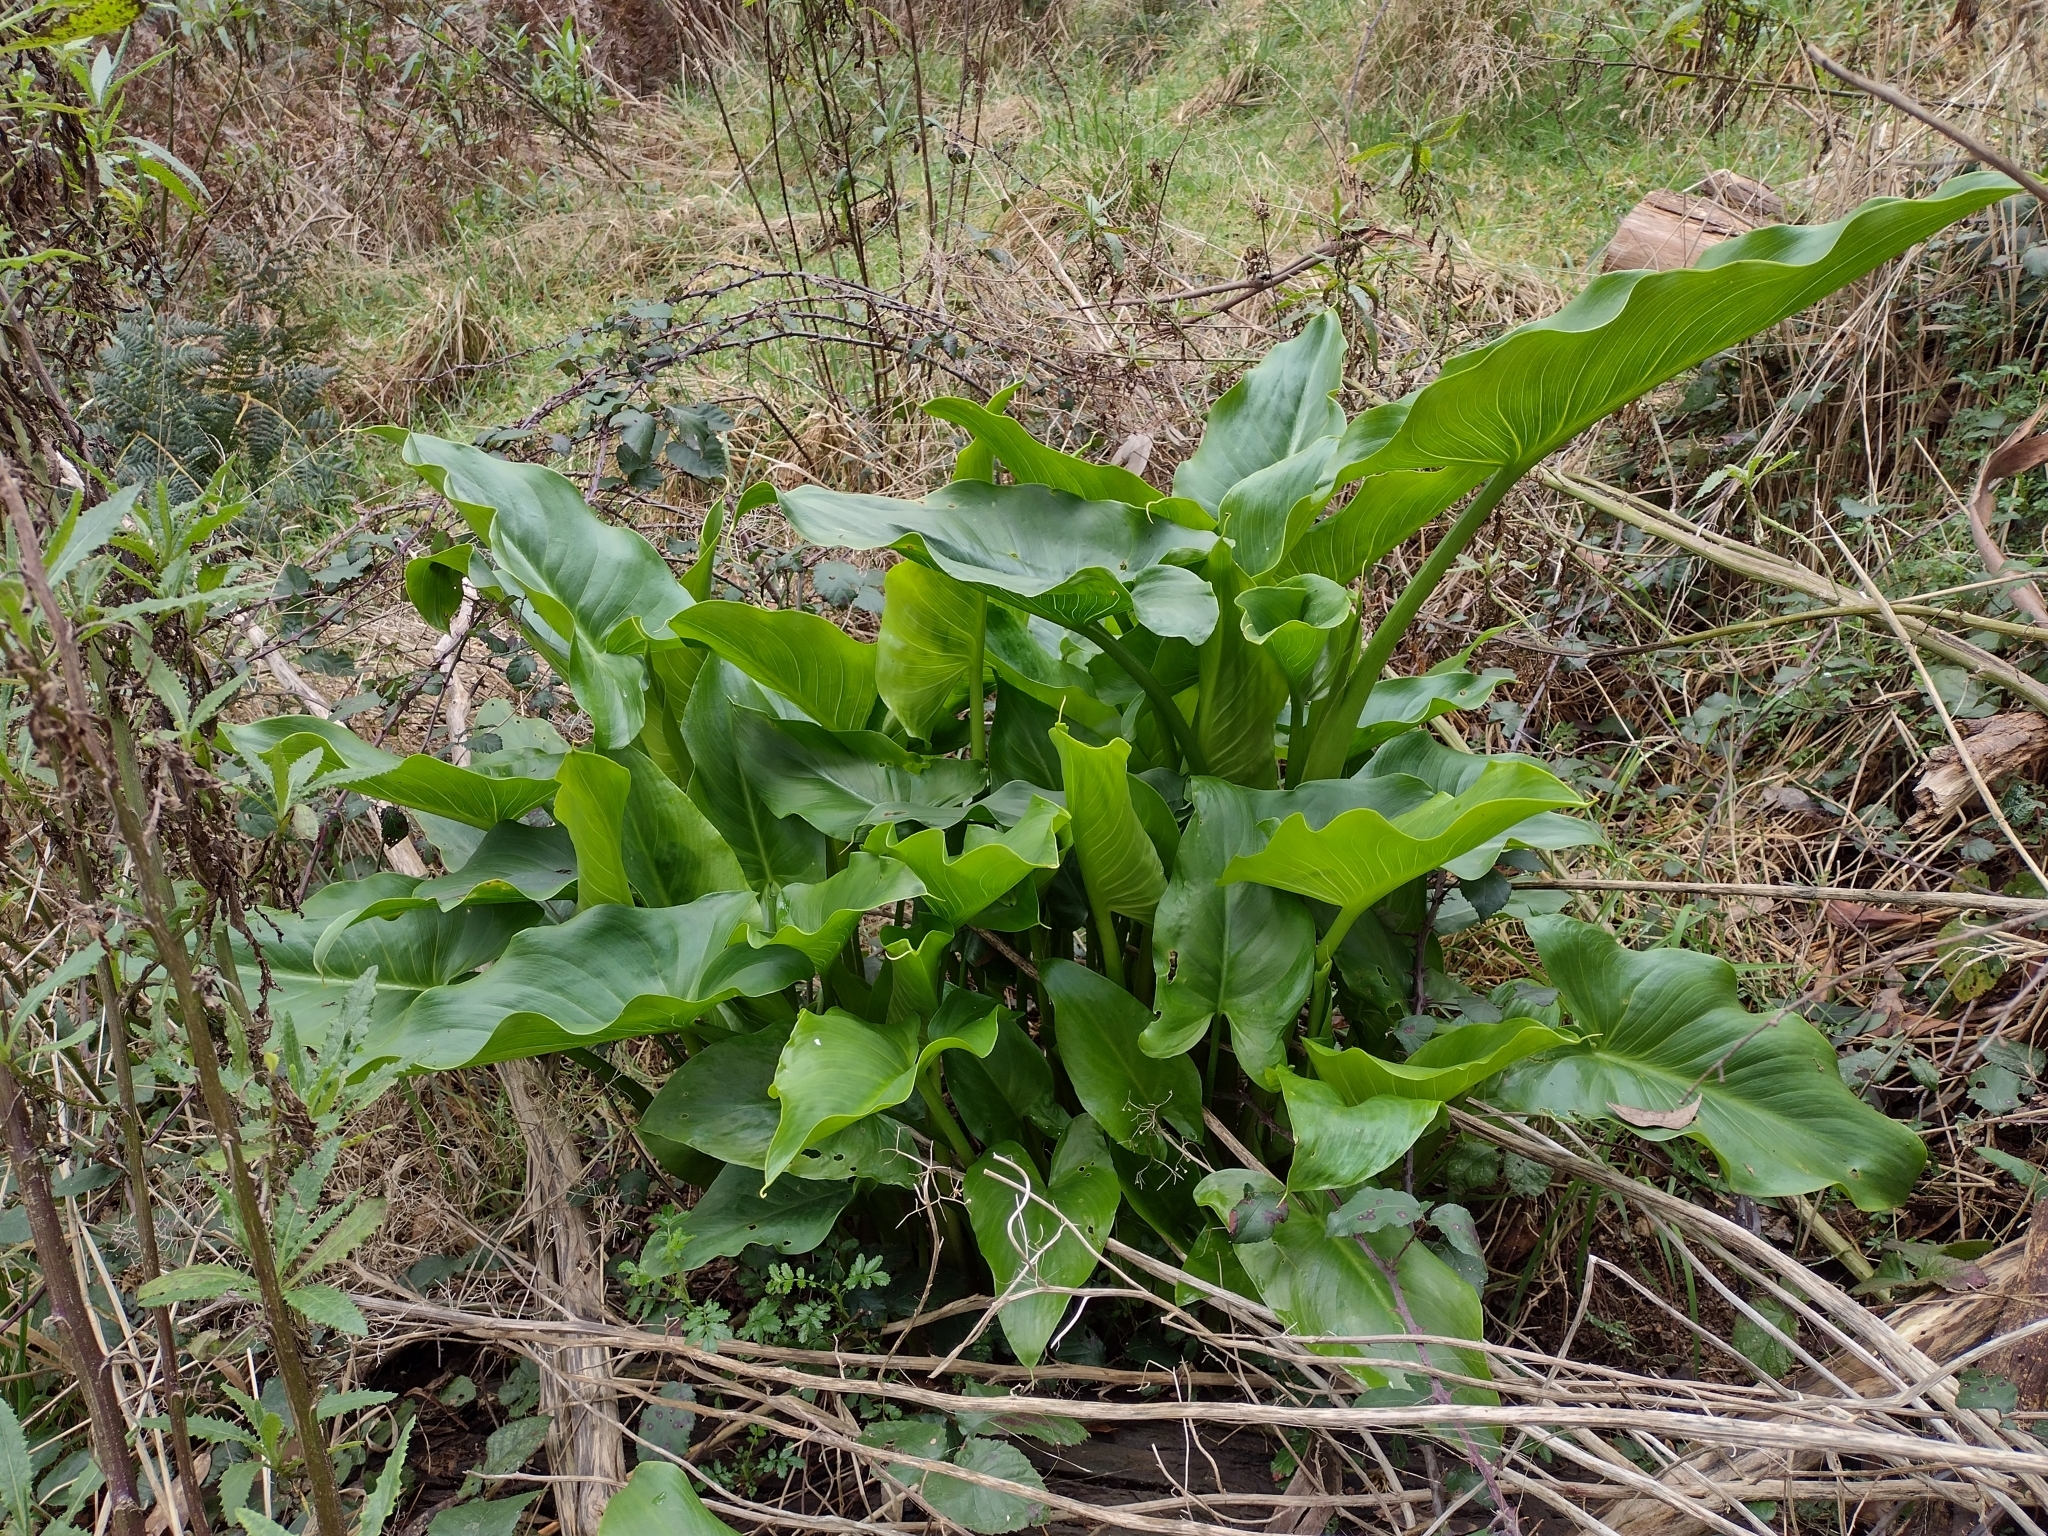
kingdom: Plantae
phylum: Tracheophyta
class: Liliopsida
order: Alismatales
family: Araceae
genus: Zantedeschia
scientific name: Zantedeschia aethiopica
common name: Altar-lily
